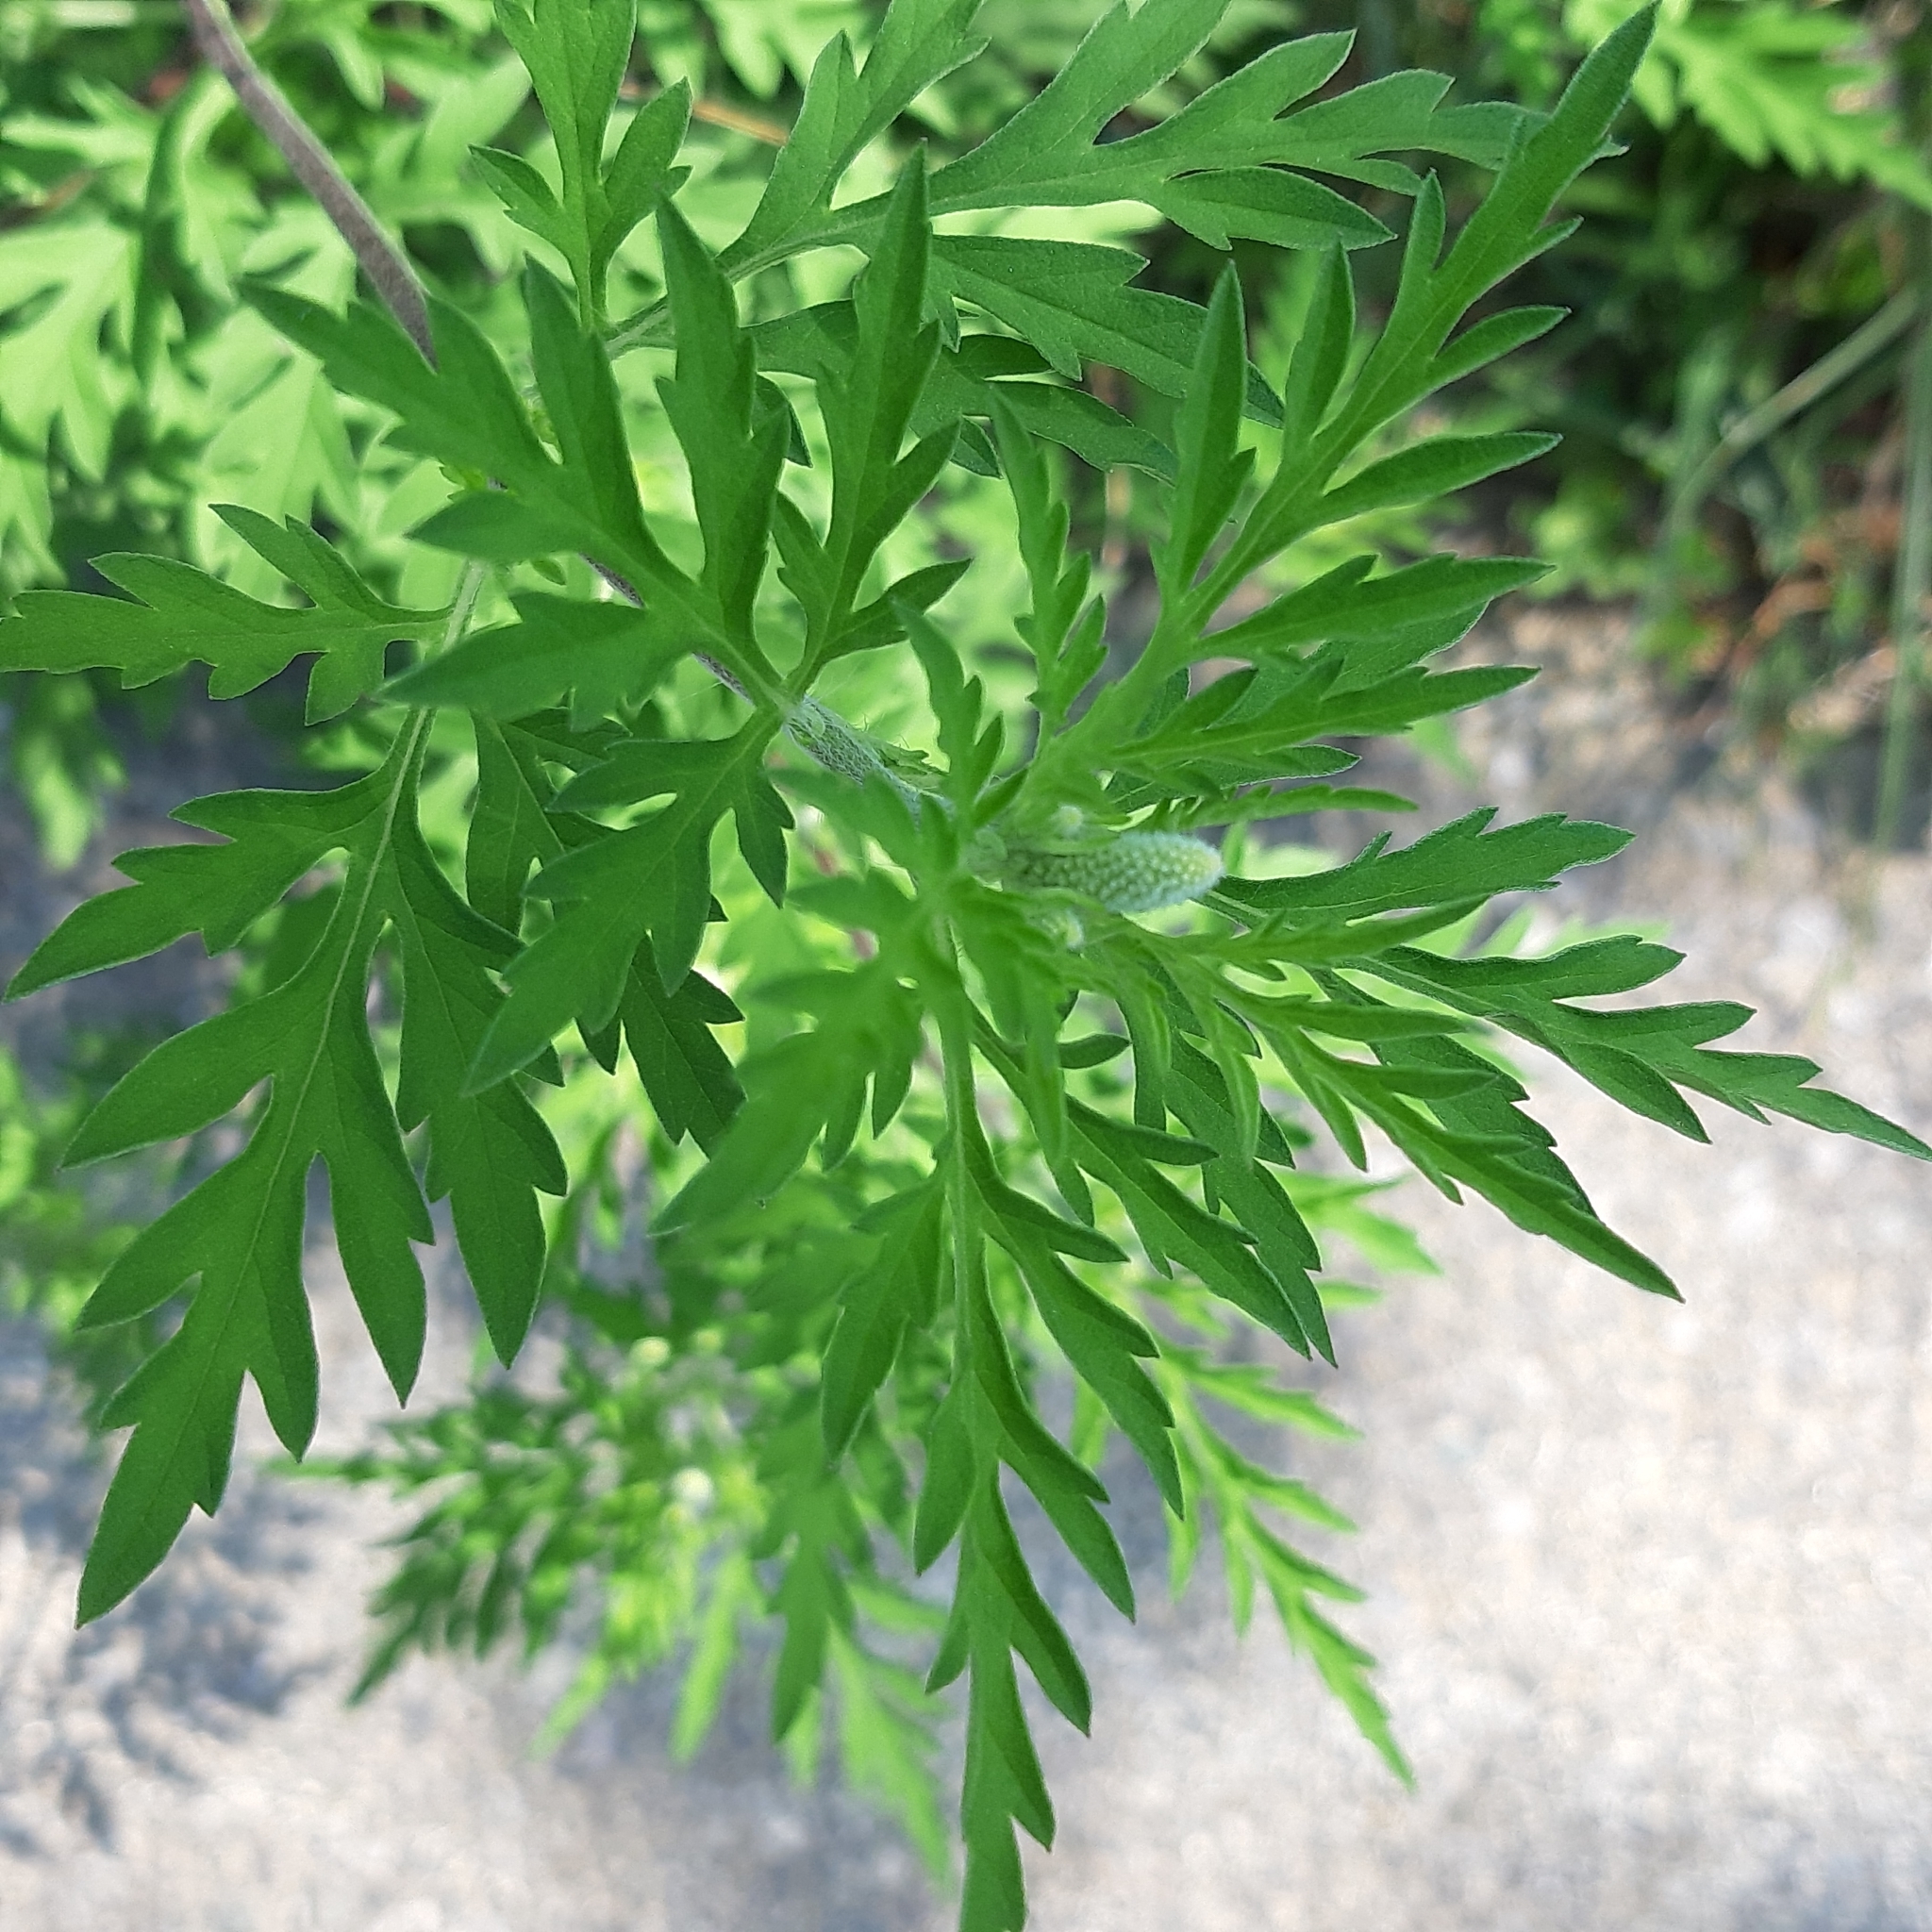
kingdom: Plantae
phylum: Tracheophyta
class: Magnoliopsida
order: Asterales
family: Asteraceae
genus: Ambrosia
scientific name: Ambrosia artemisiifolia
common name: Annual ragweed
